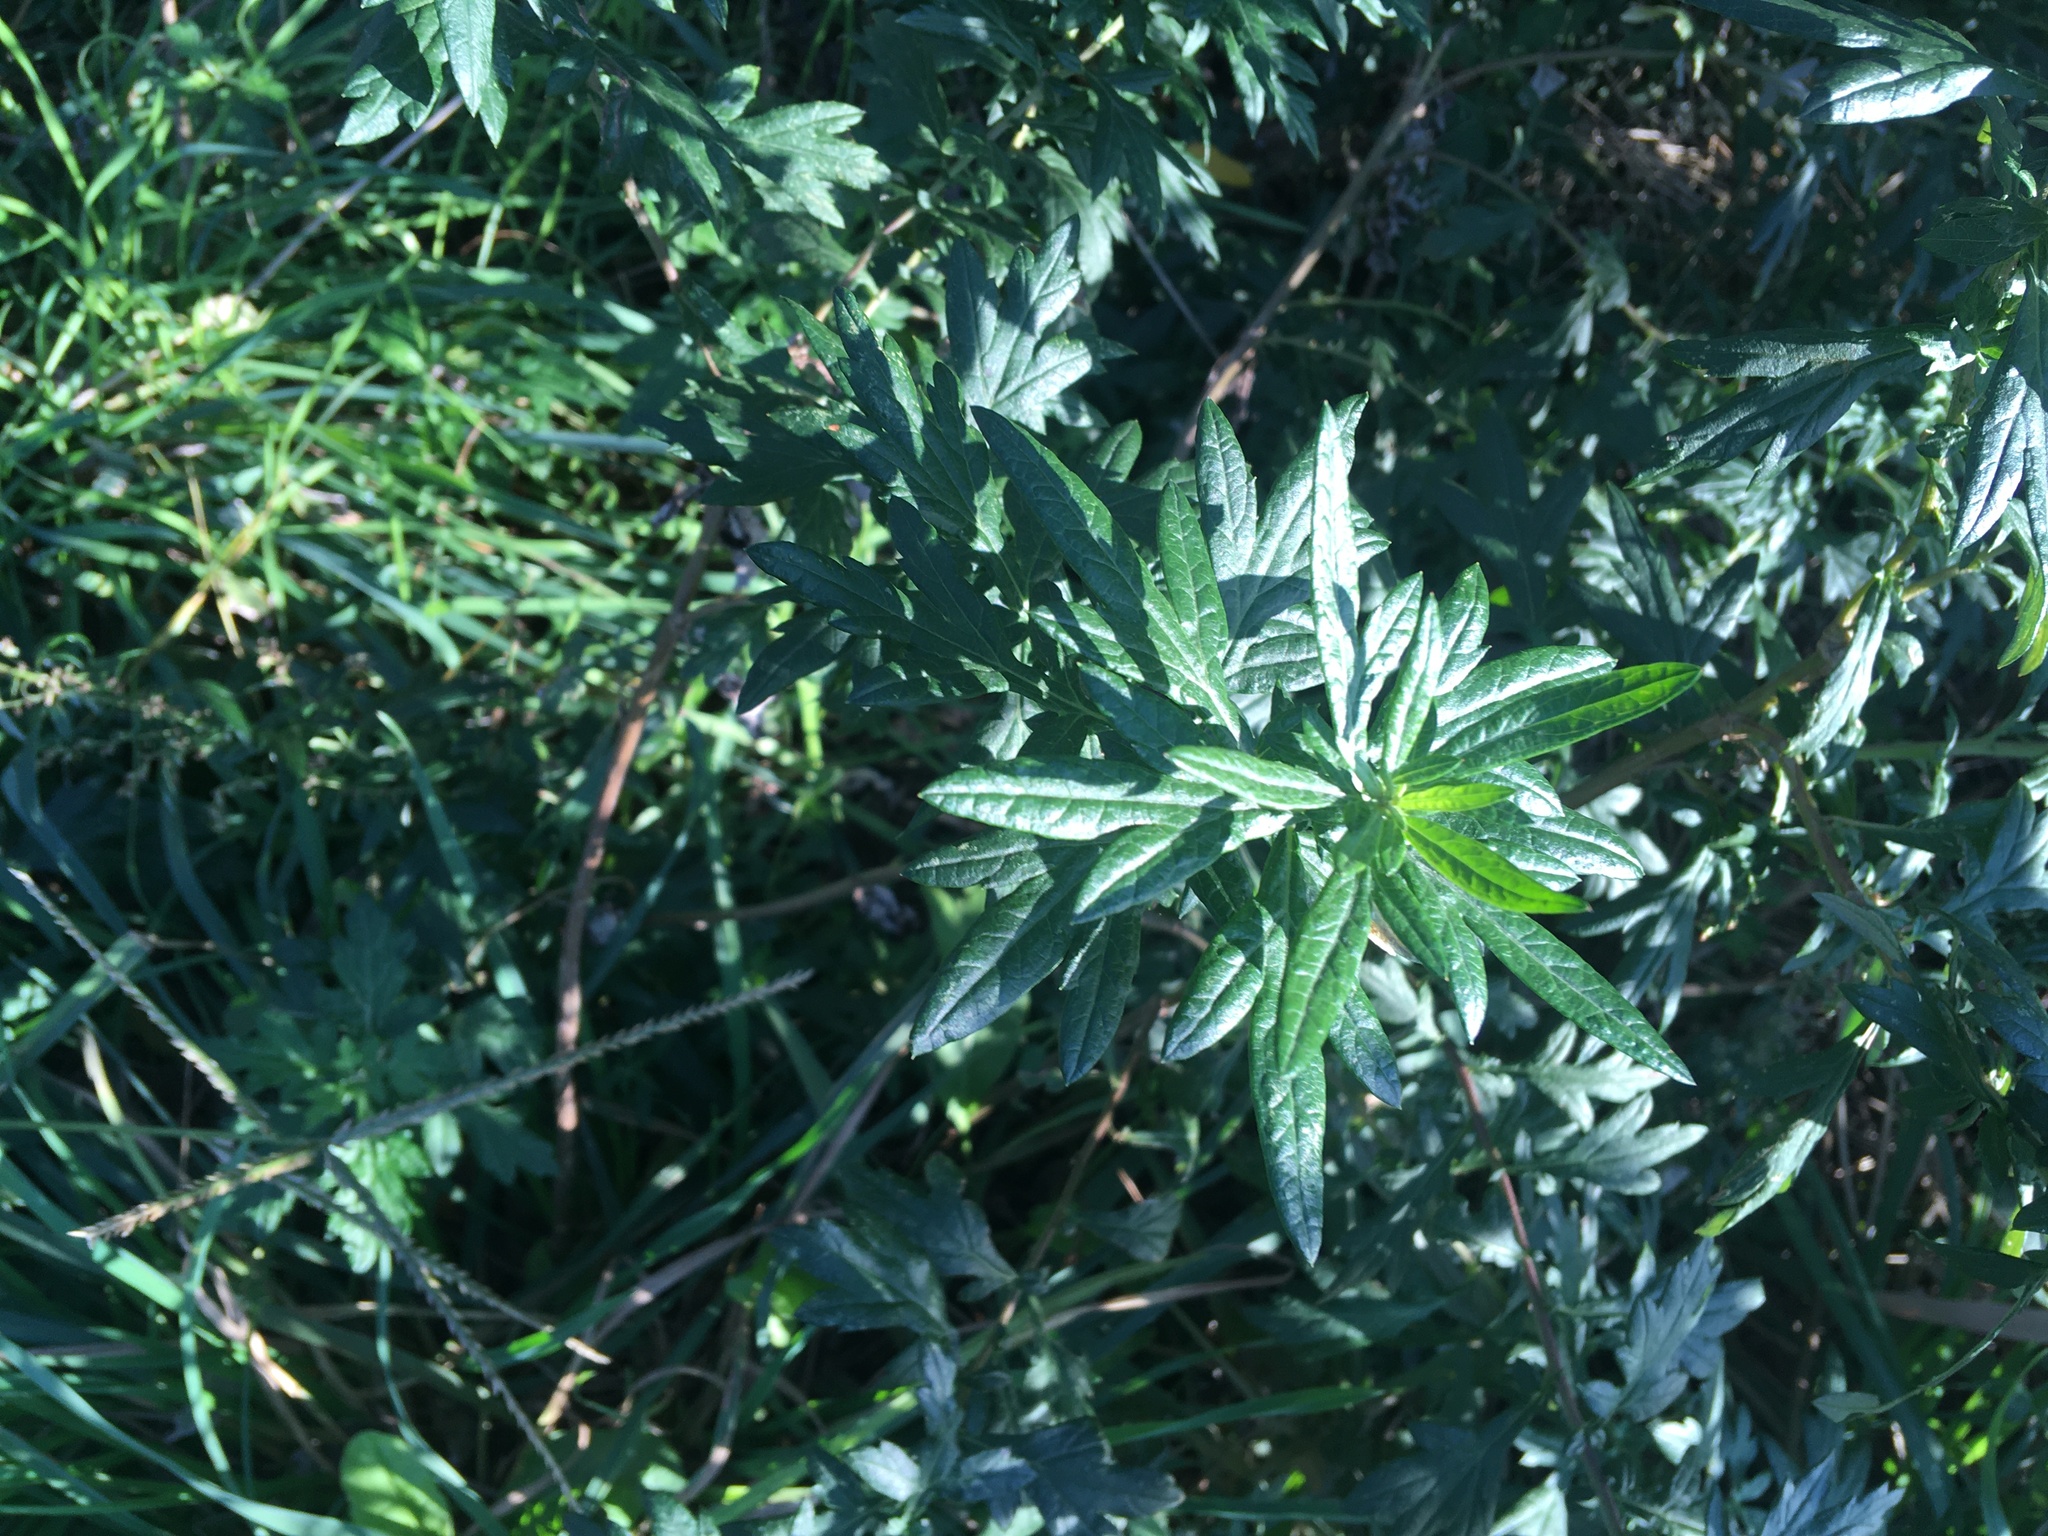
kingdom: Plantae
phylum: Tracheophyta
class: Magnoliopsida
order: Asterales
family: Asteraceae
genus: Artemisia
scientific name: Artemisia vulgaris
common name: Mugwort
